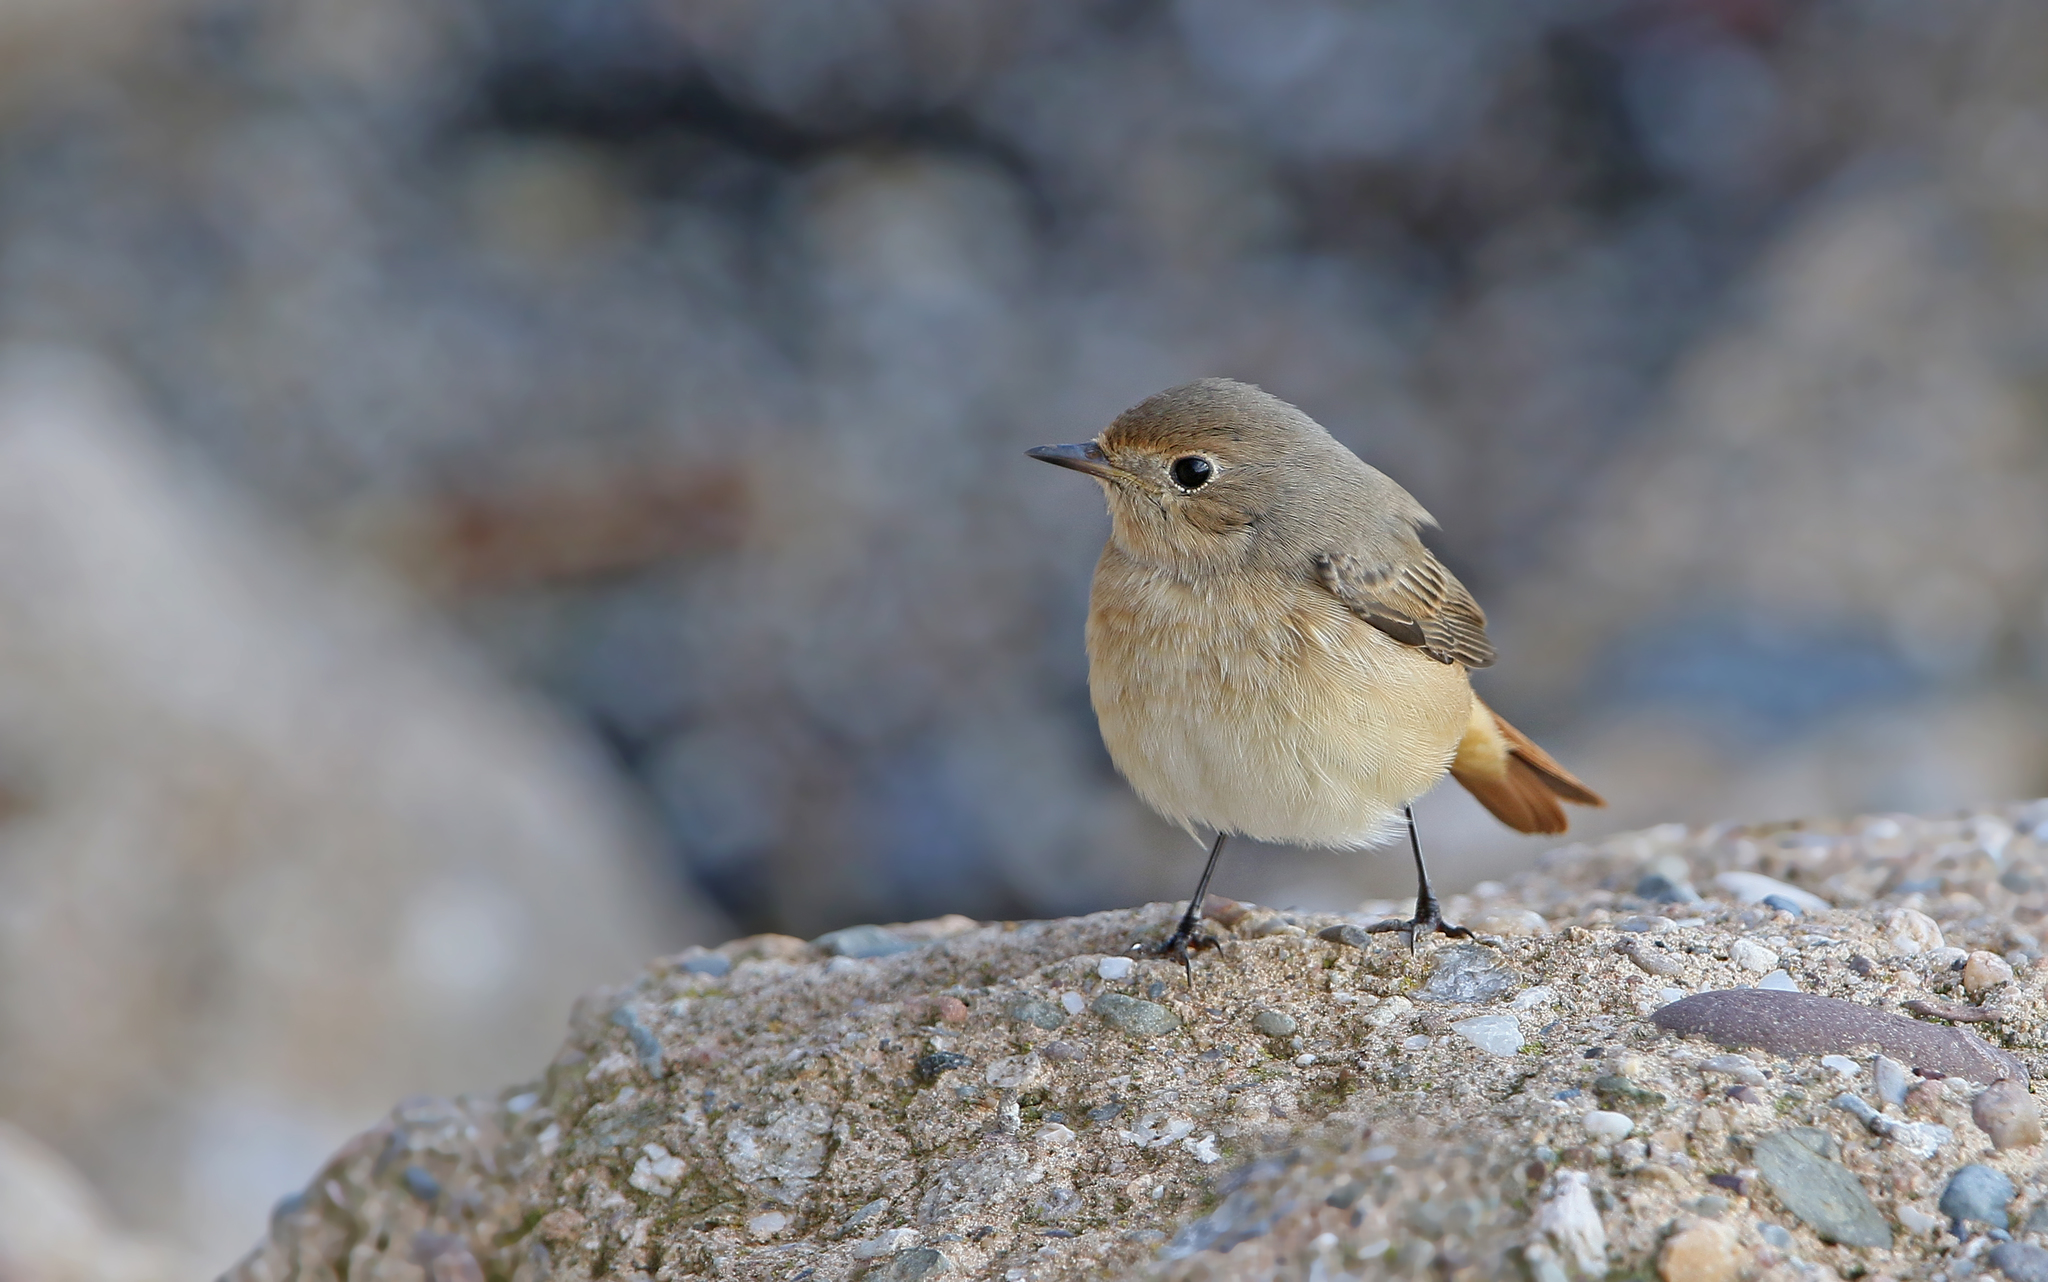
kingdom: Animalia
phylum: Chordata
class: Aves
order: Passeriformes
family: Muscicapidae
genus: Phoenicurus
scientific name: Phoenicurus phoenicurus
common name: Common redstart
